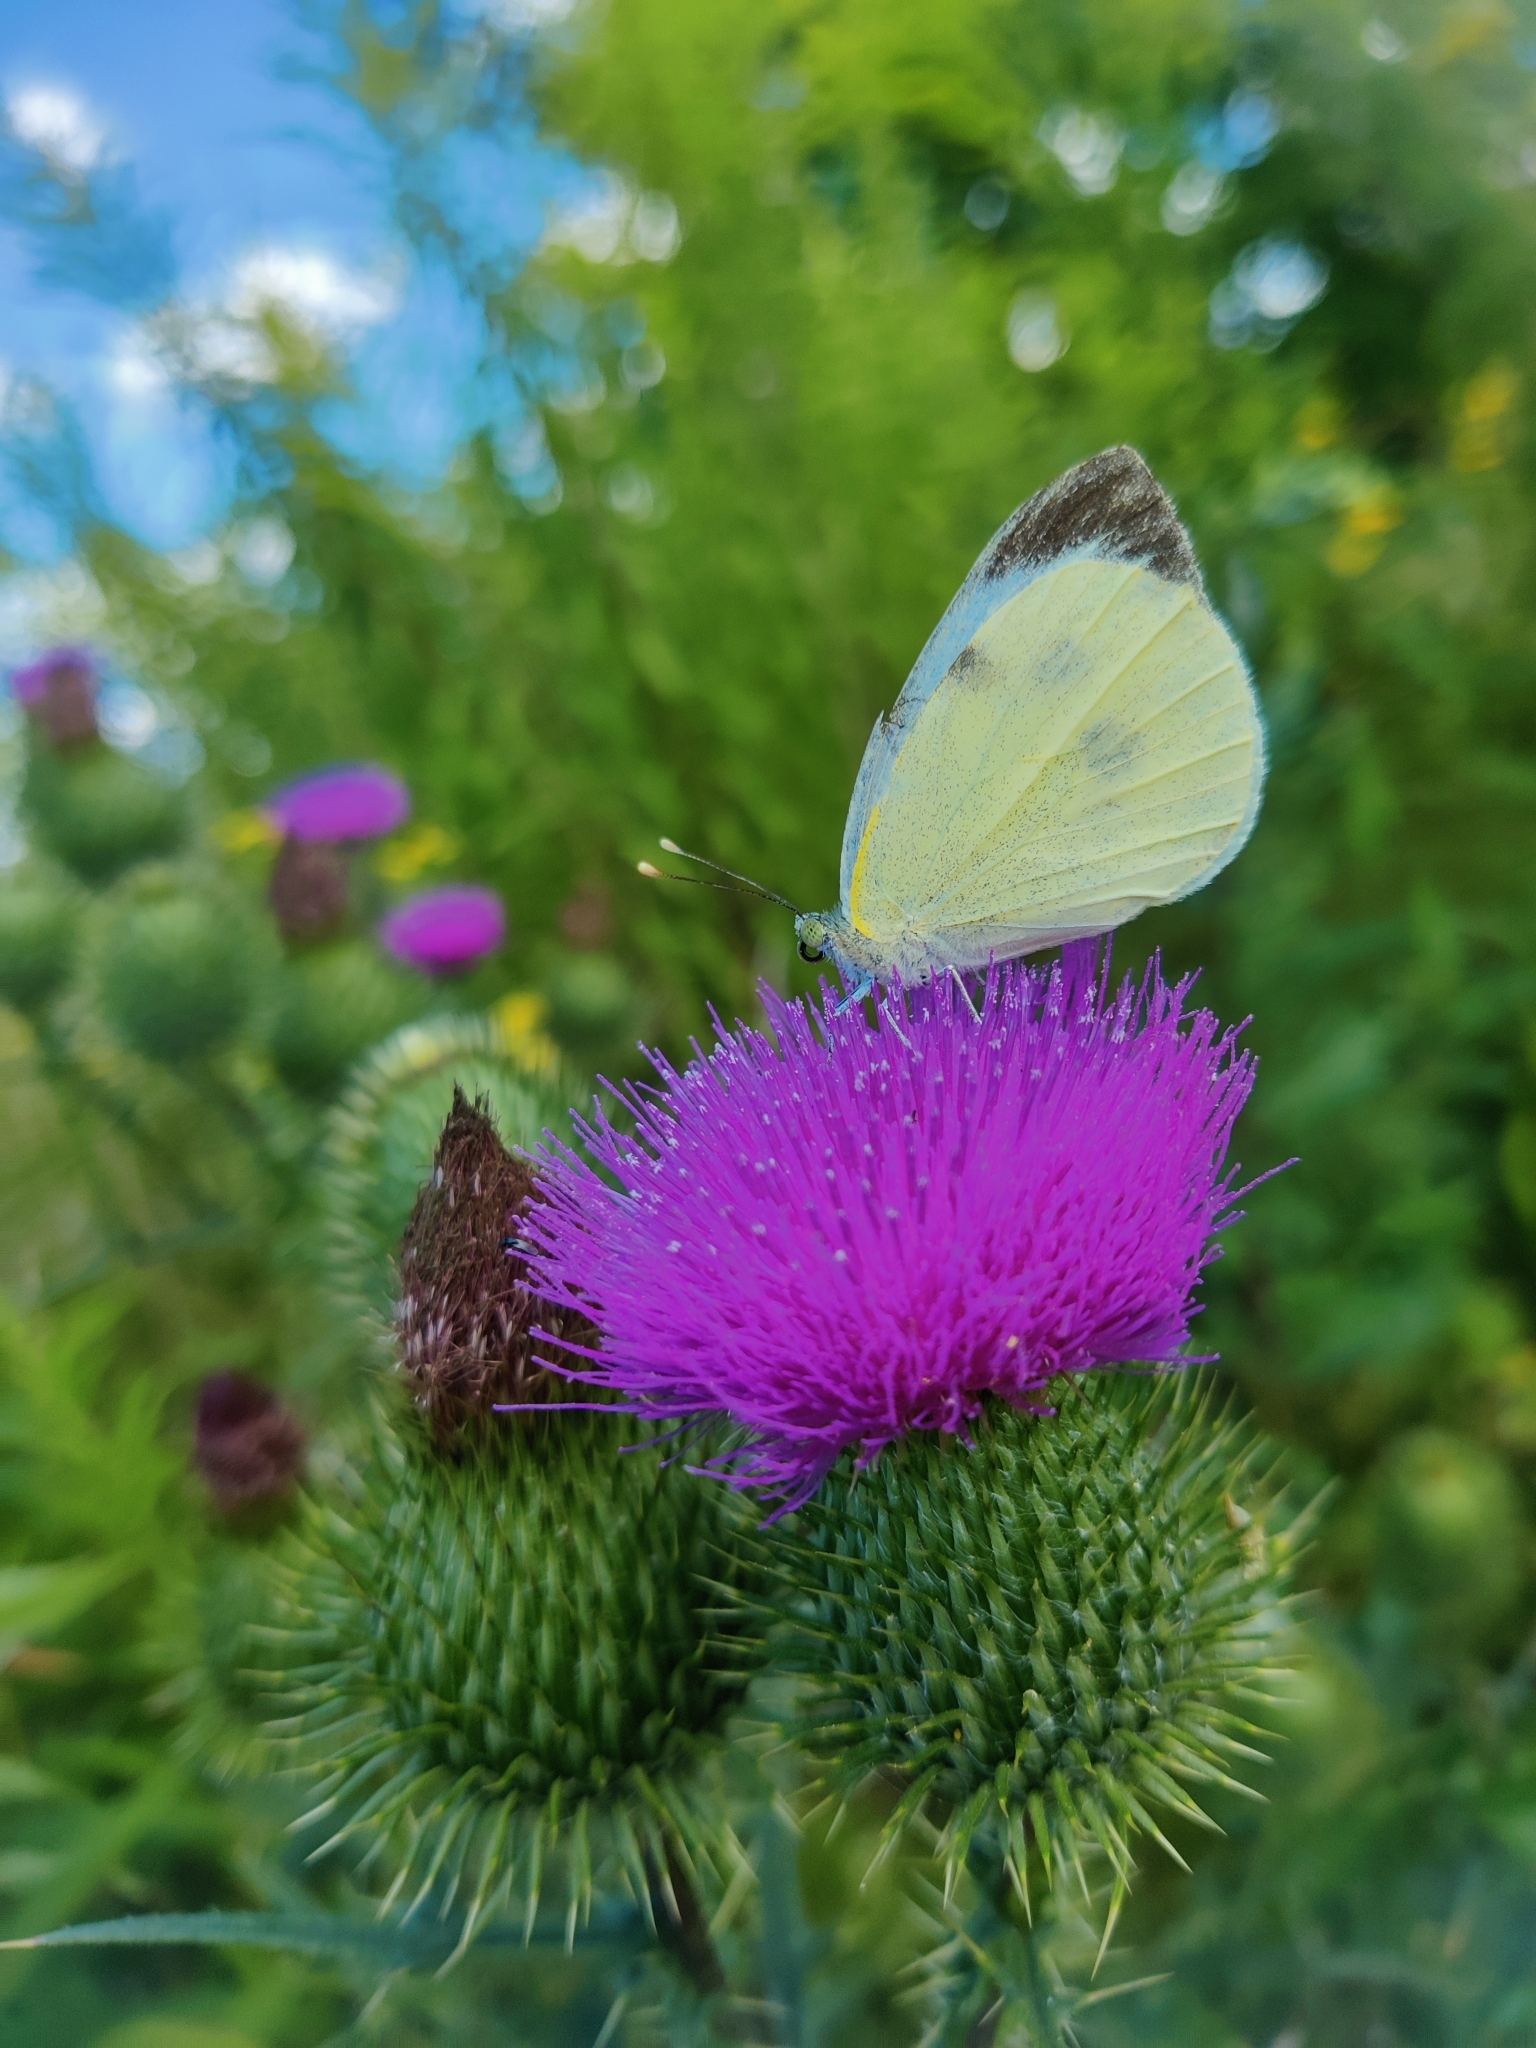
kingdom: Animalia
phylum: Arthropoda
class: Insecta
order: Lepidoptera
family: Pieridae
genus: Pieris
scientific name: Pieris brassicae
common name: Large white
